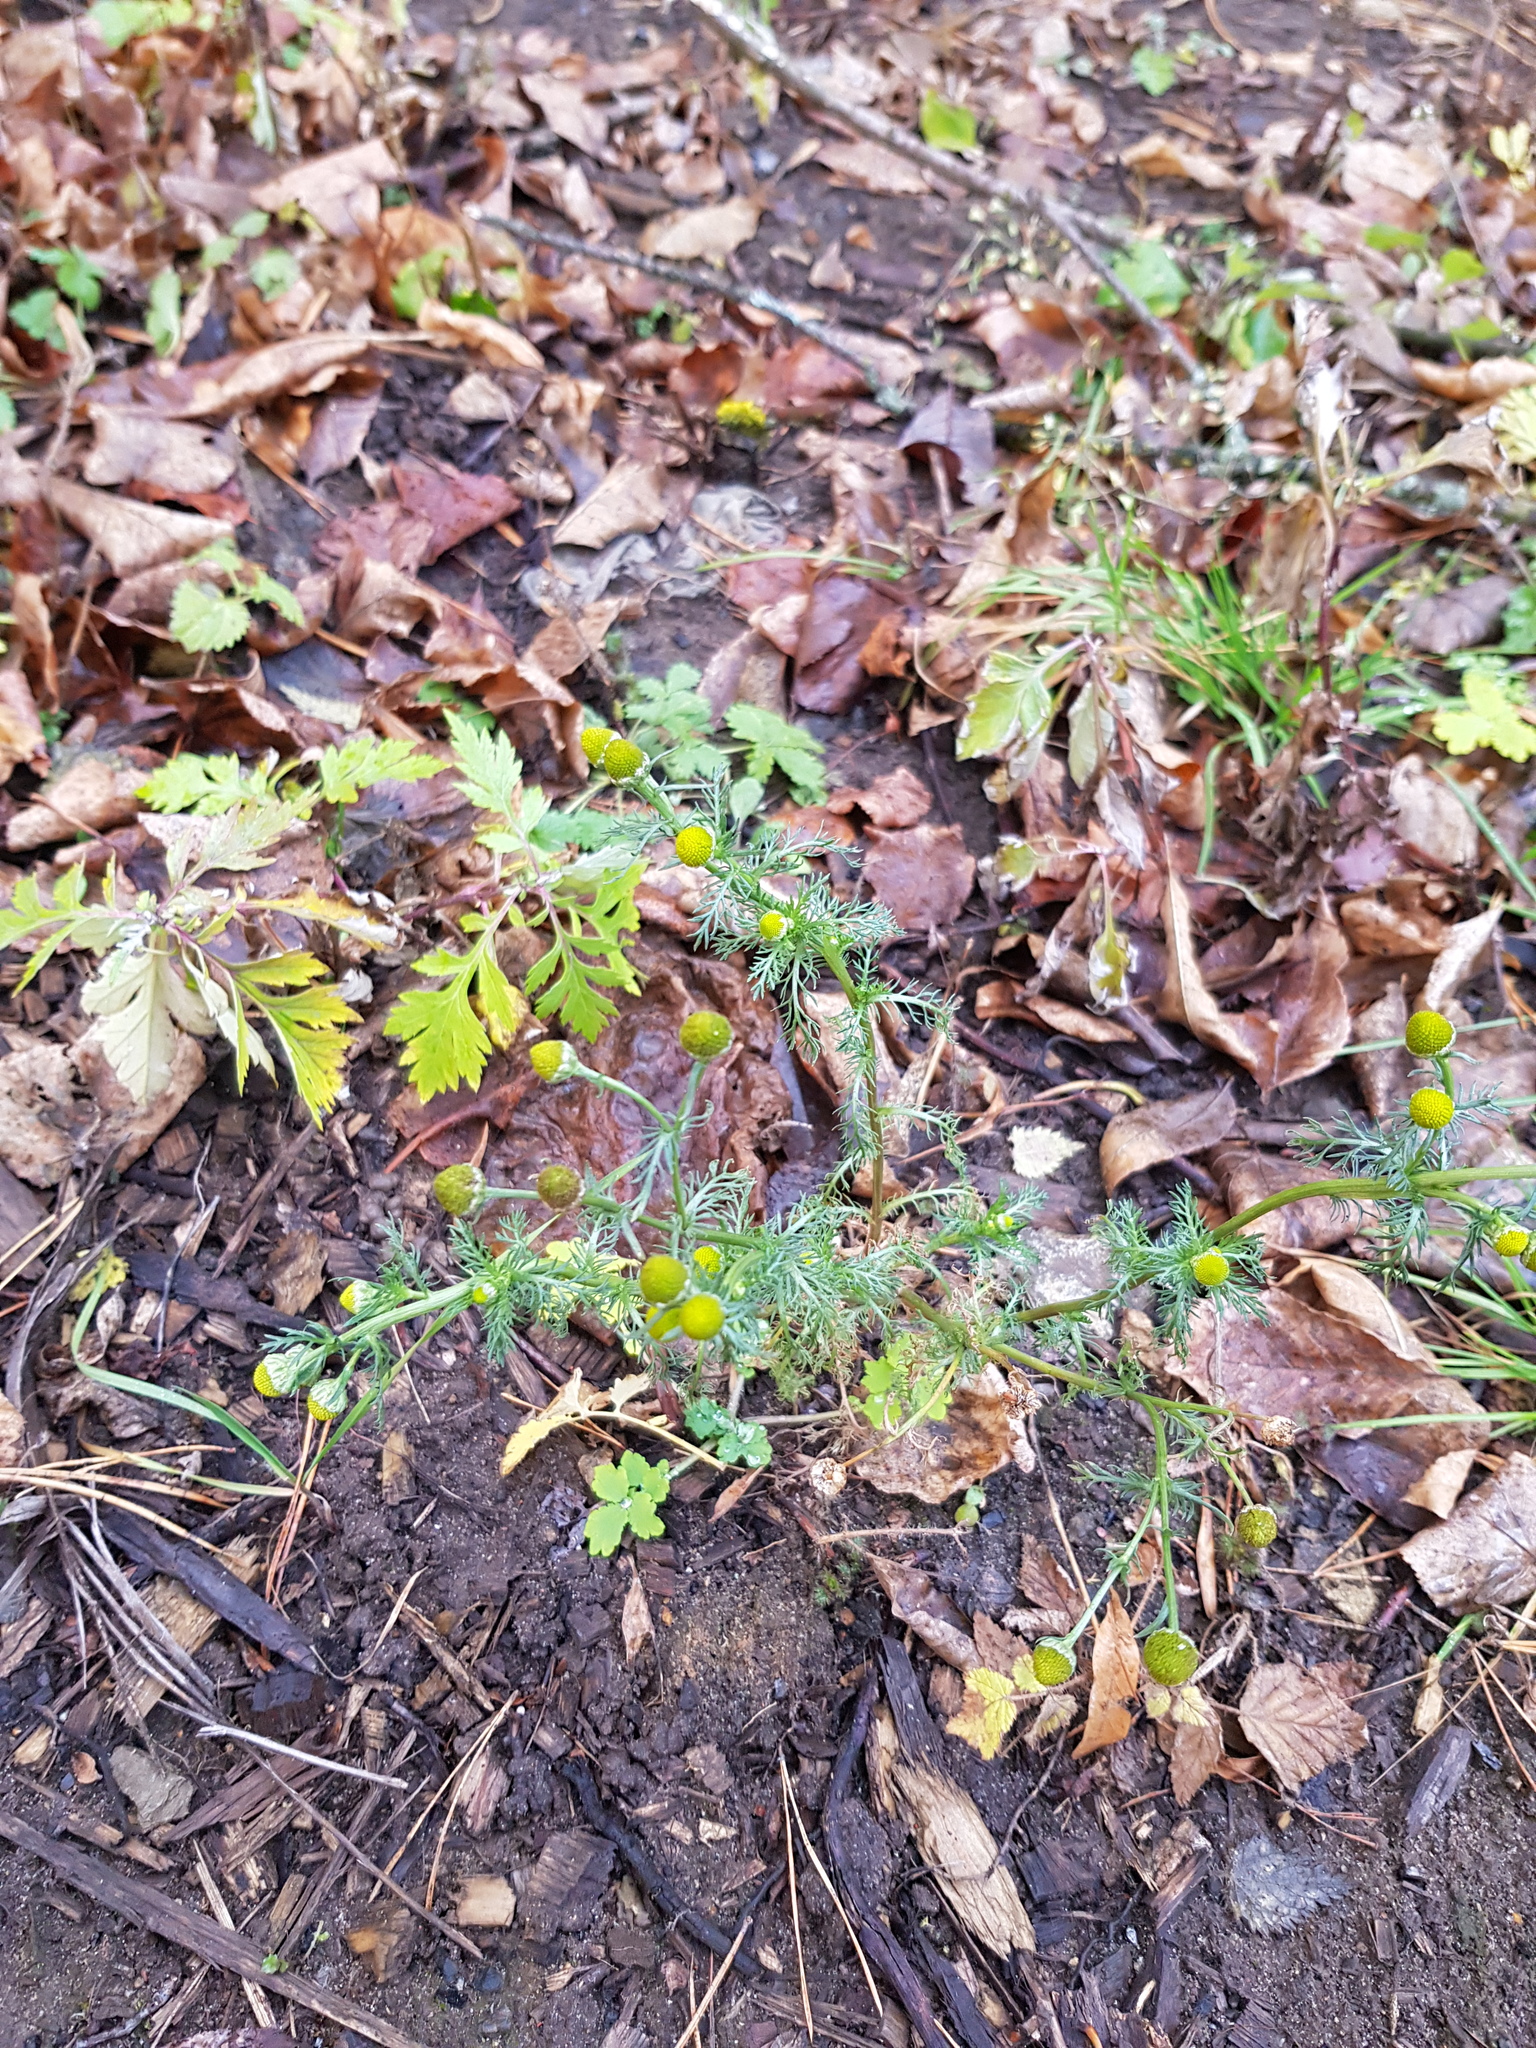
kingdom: Plantae
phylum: Tracheophyta
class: Magnoliopsida
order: Asterales
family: Asteraceae
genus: Matricaria
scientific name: Matricaria discoidea
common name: Disc mayweed
